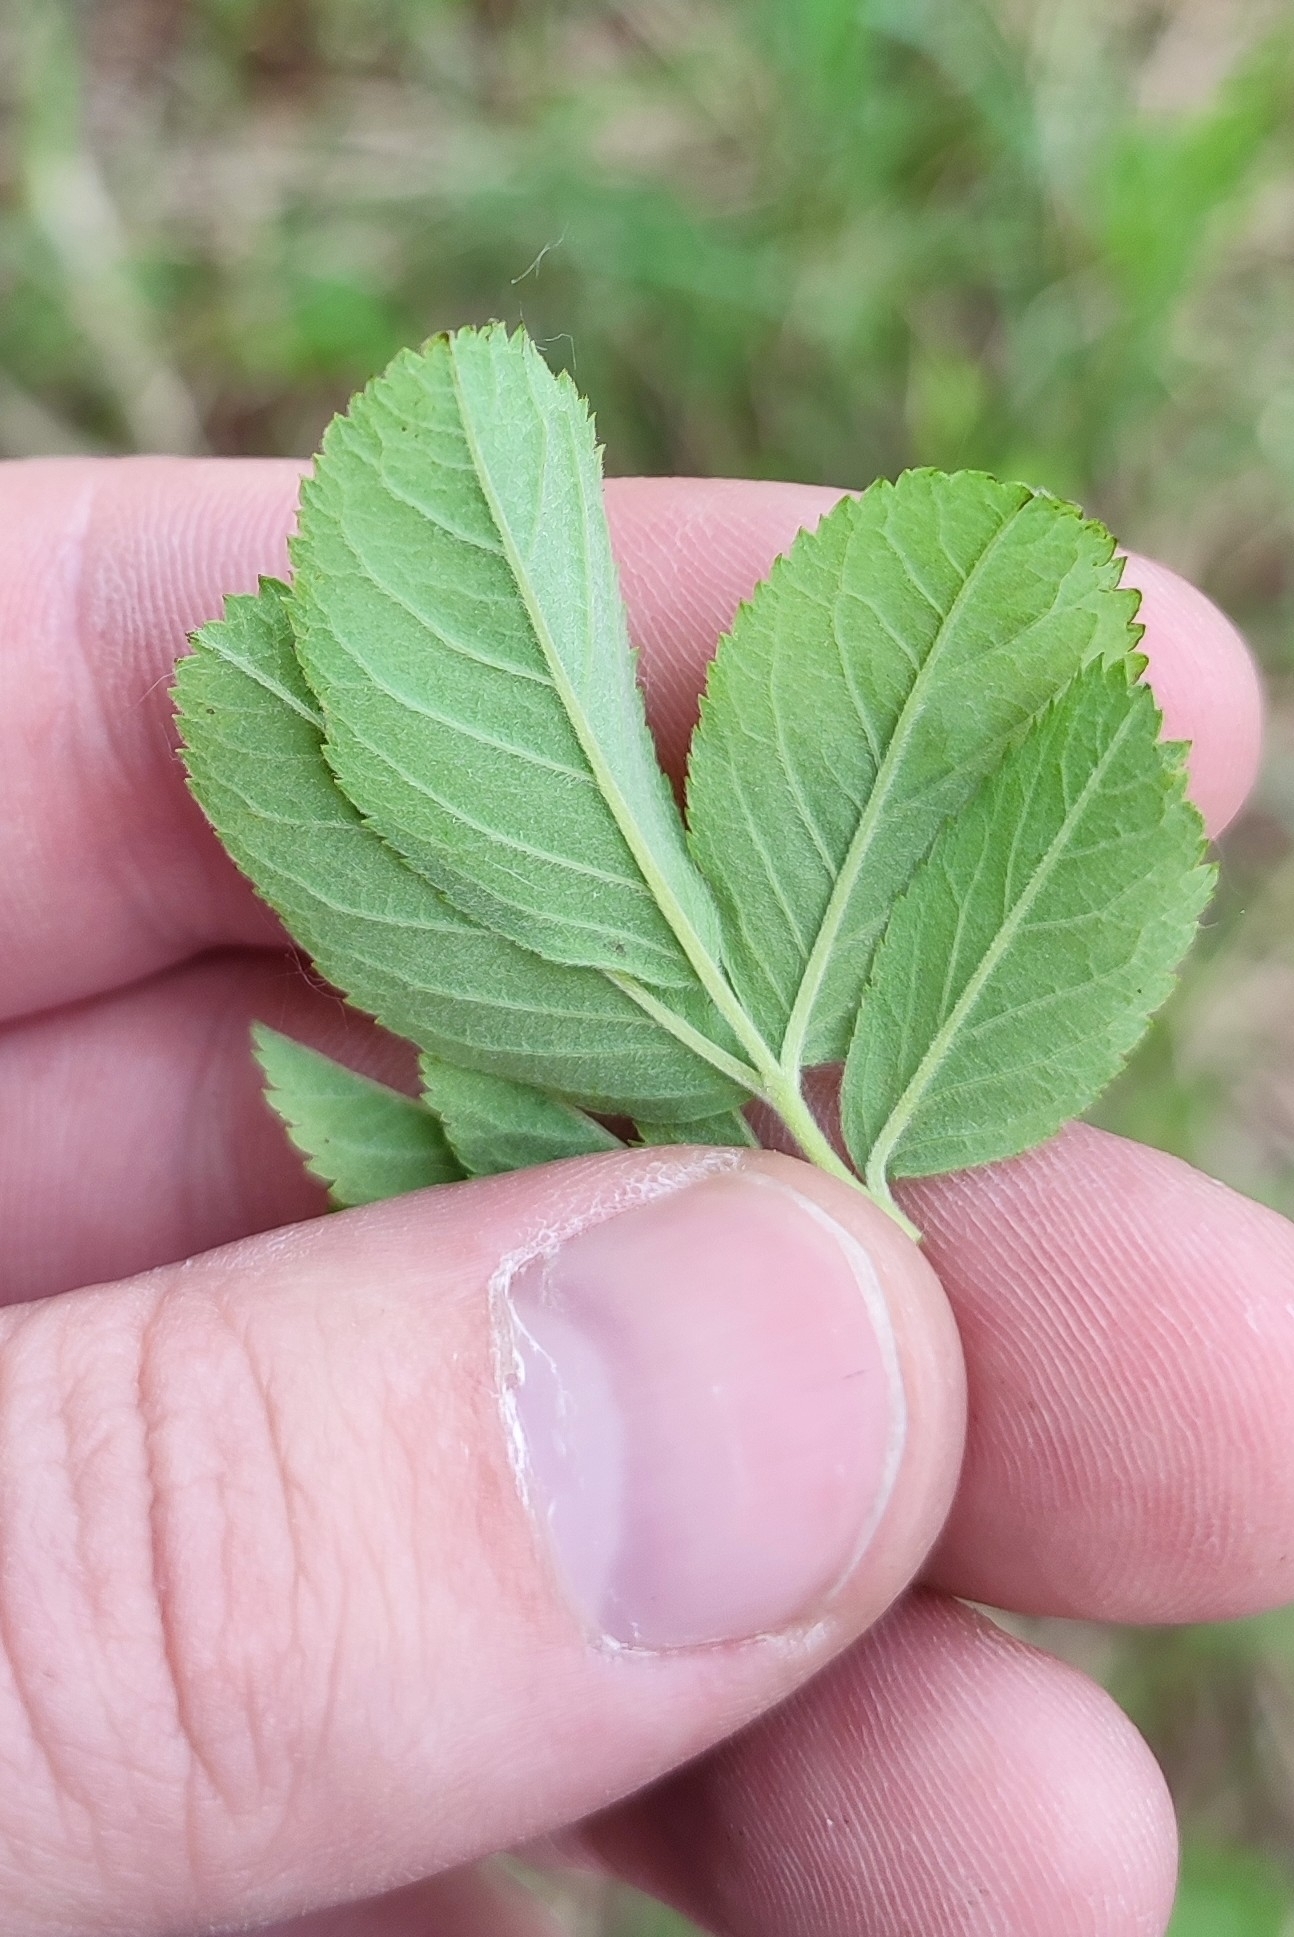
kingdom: Plantae
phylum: Tracheophyta
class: Magnoliopsida
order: Rosales
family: Rosaceae
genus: Rosa
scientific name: Rosa majalis
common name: Cinnamon rose
